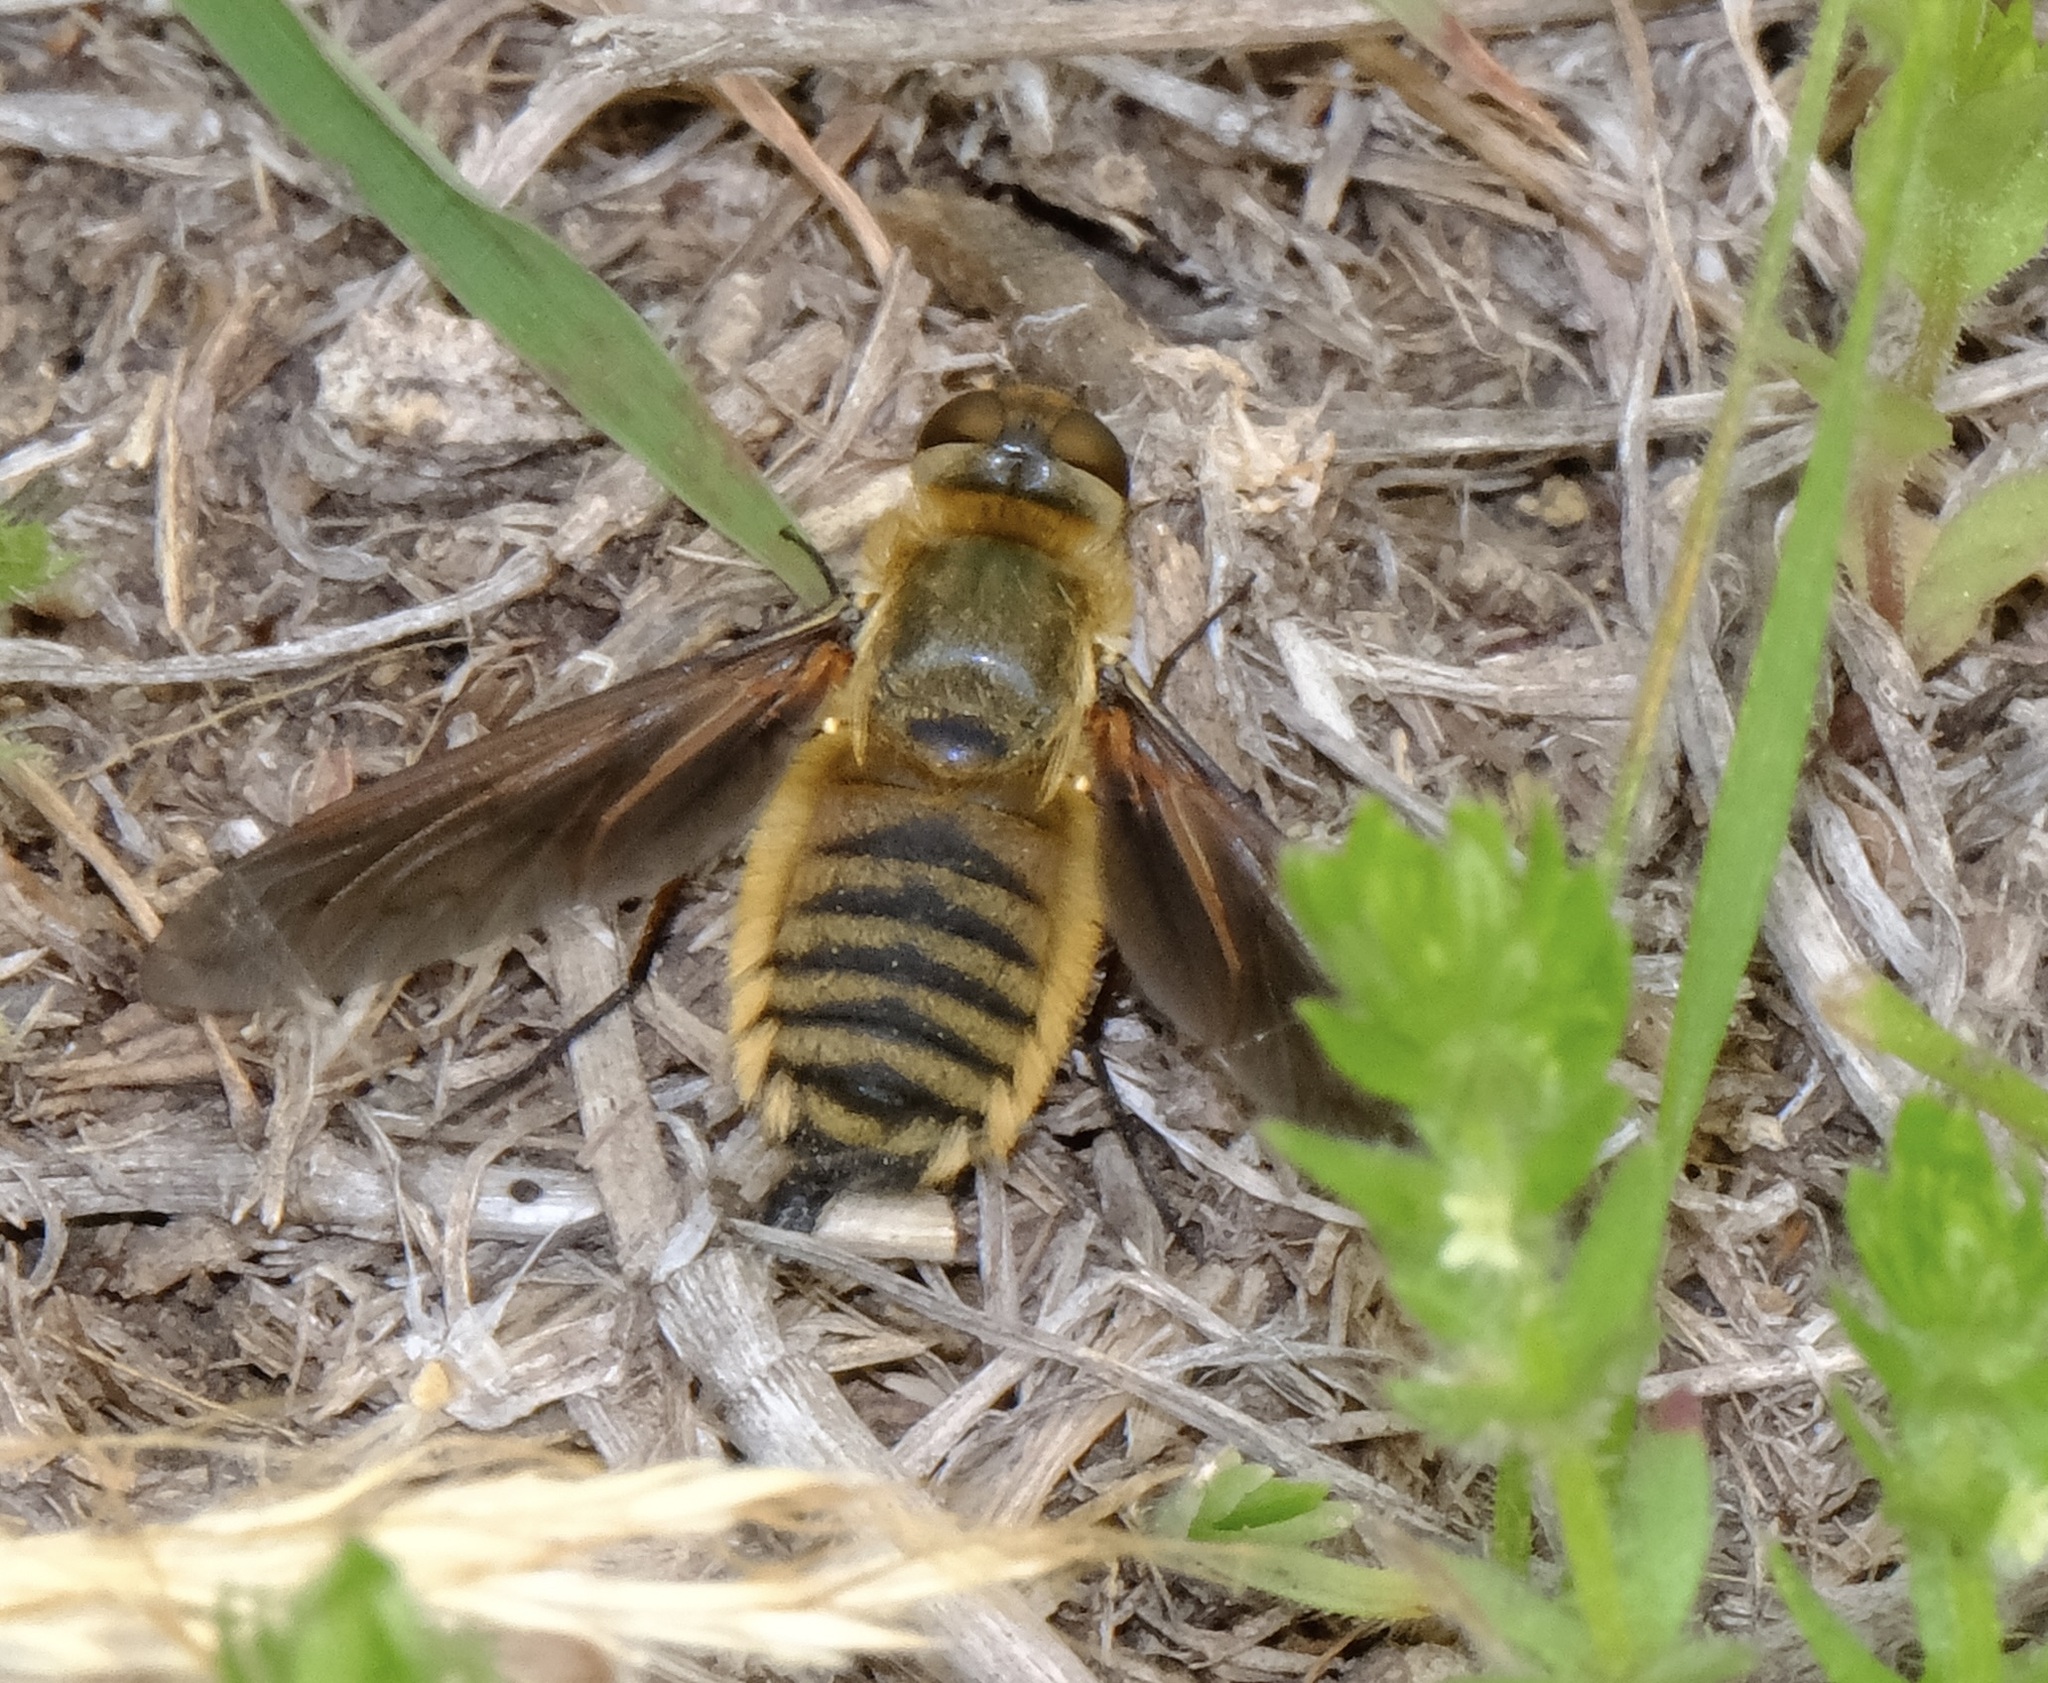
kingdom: Animalia
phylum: Arthropoda
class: Insecta
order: Diptera
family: Bombyliidae
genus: Poecilanthrax
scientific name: Poecilanthrax lucifer
